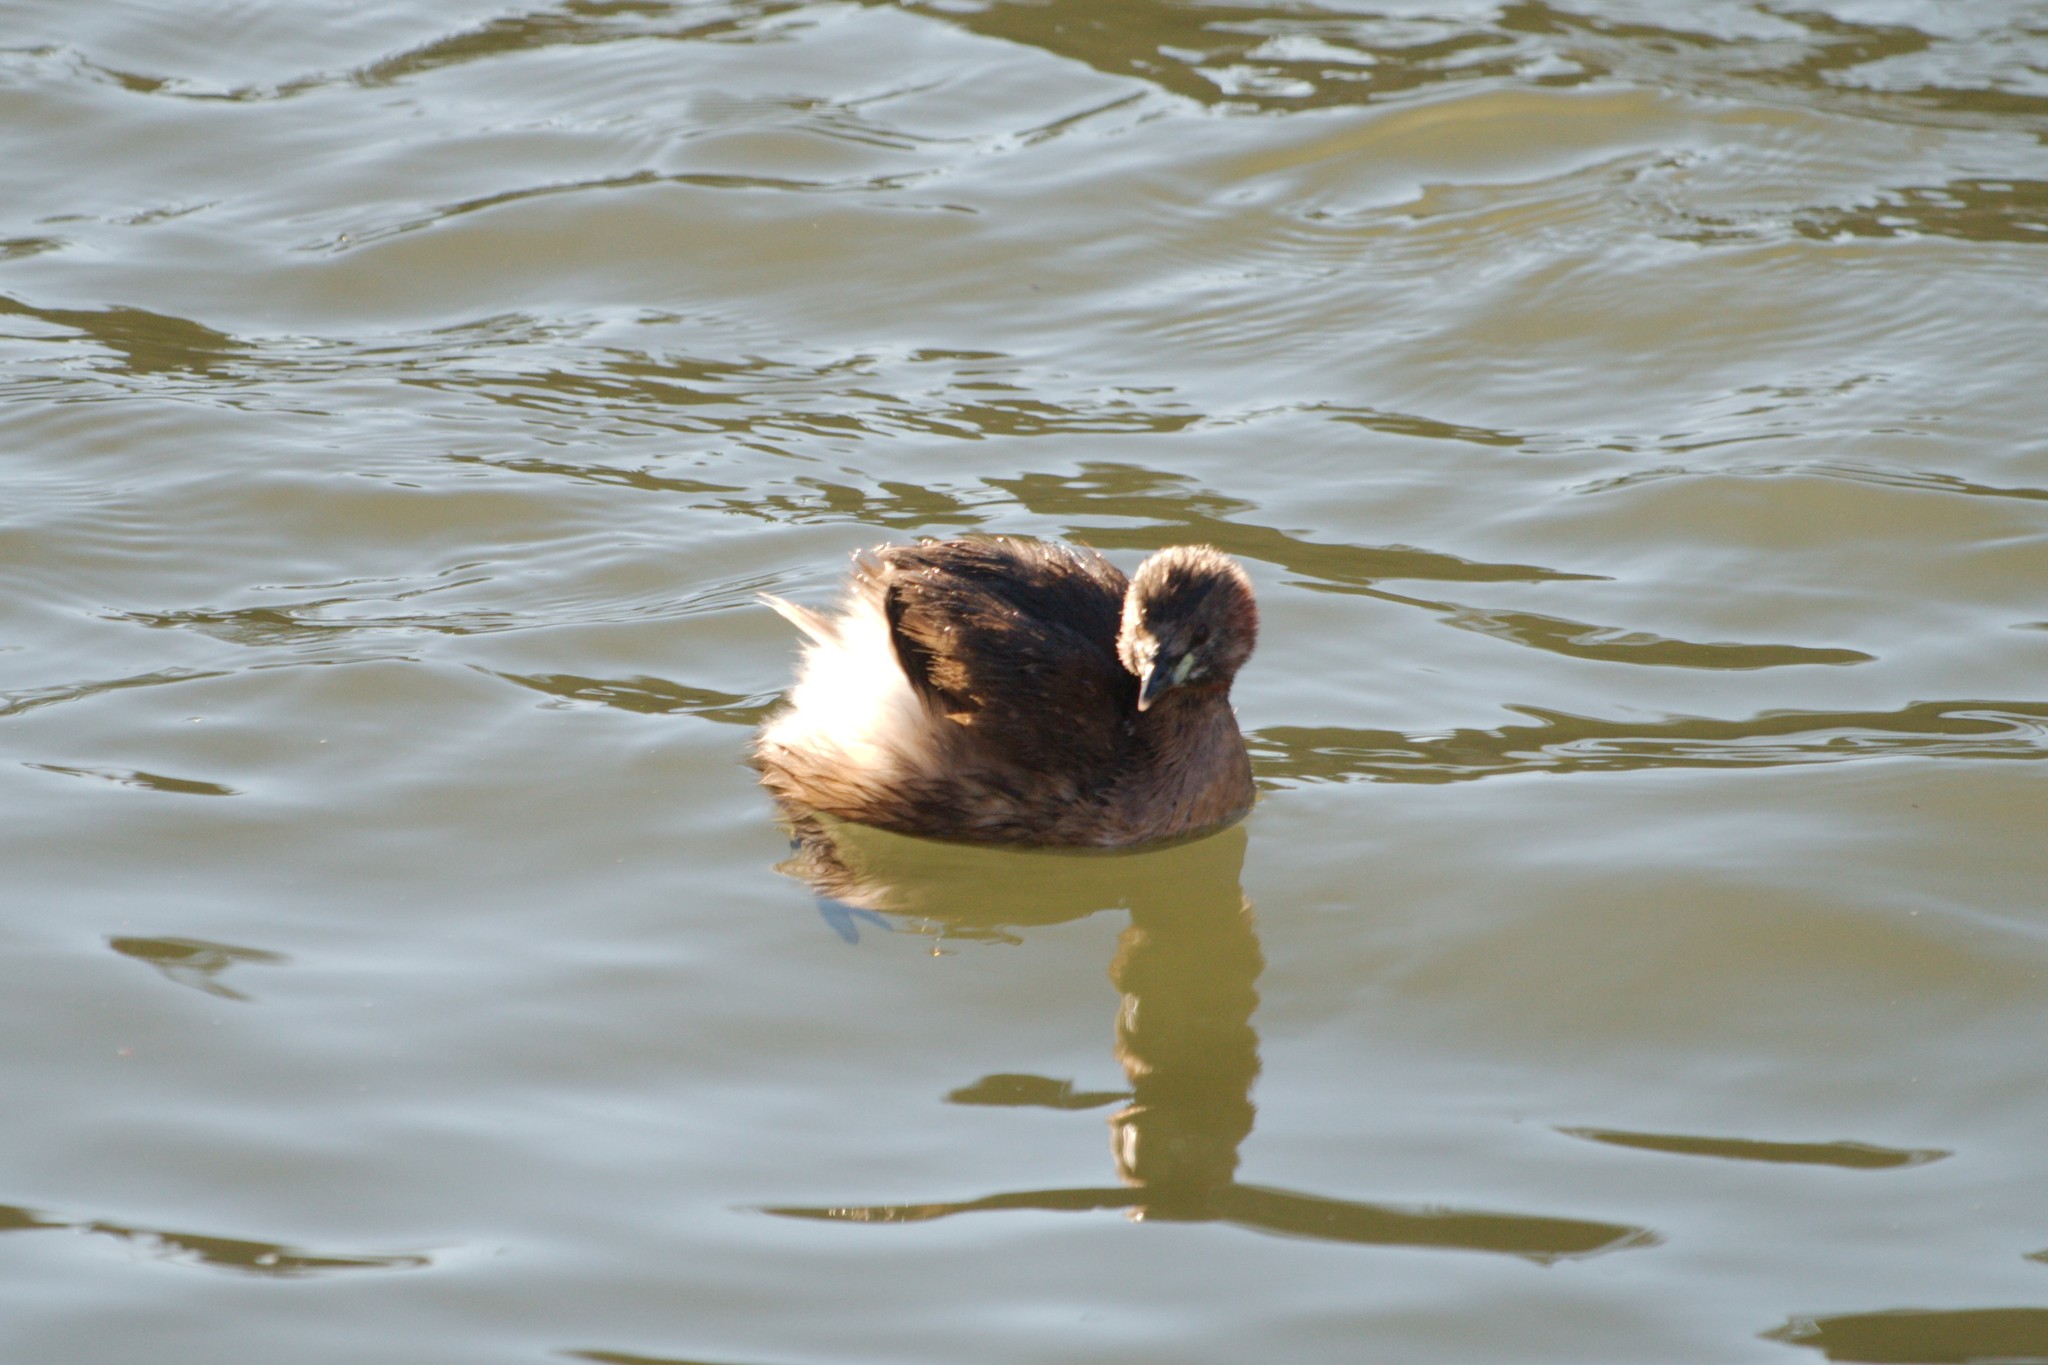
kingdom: Animalia
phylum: Chordata
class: Aves
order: Podicipediformes
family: Podicipedidae
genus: Tachybaptus
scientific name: Tachybaptus ruficollis
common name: Little grebe
